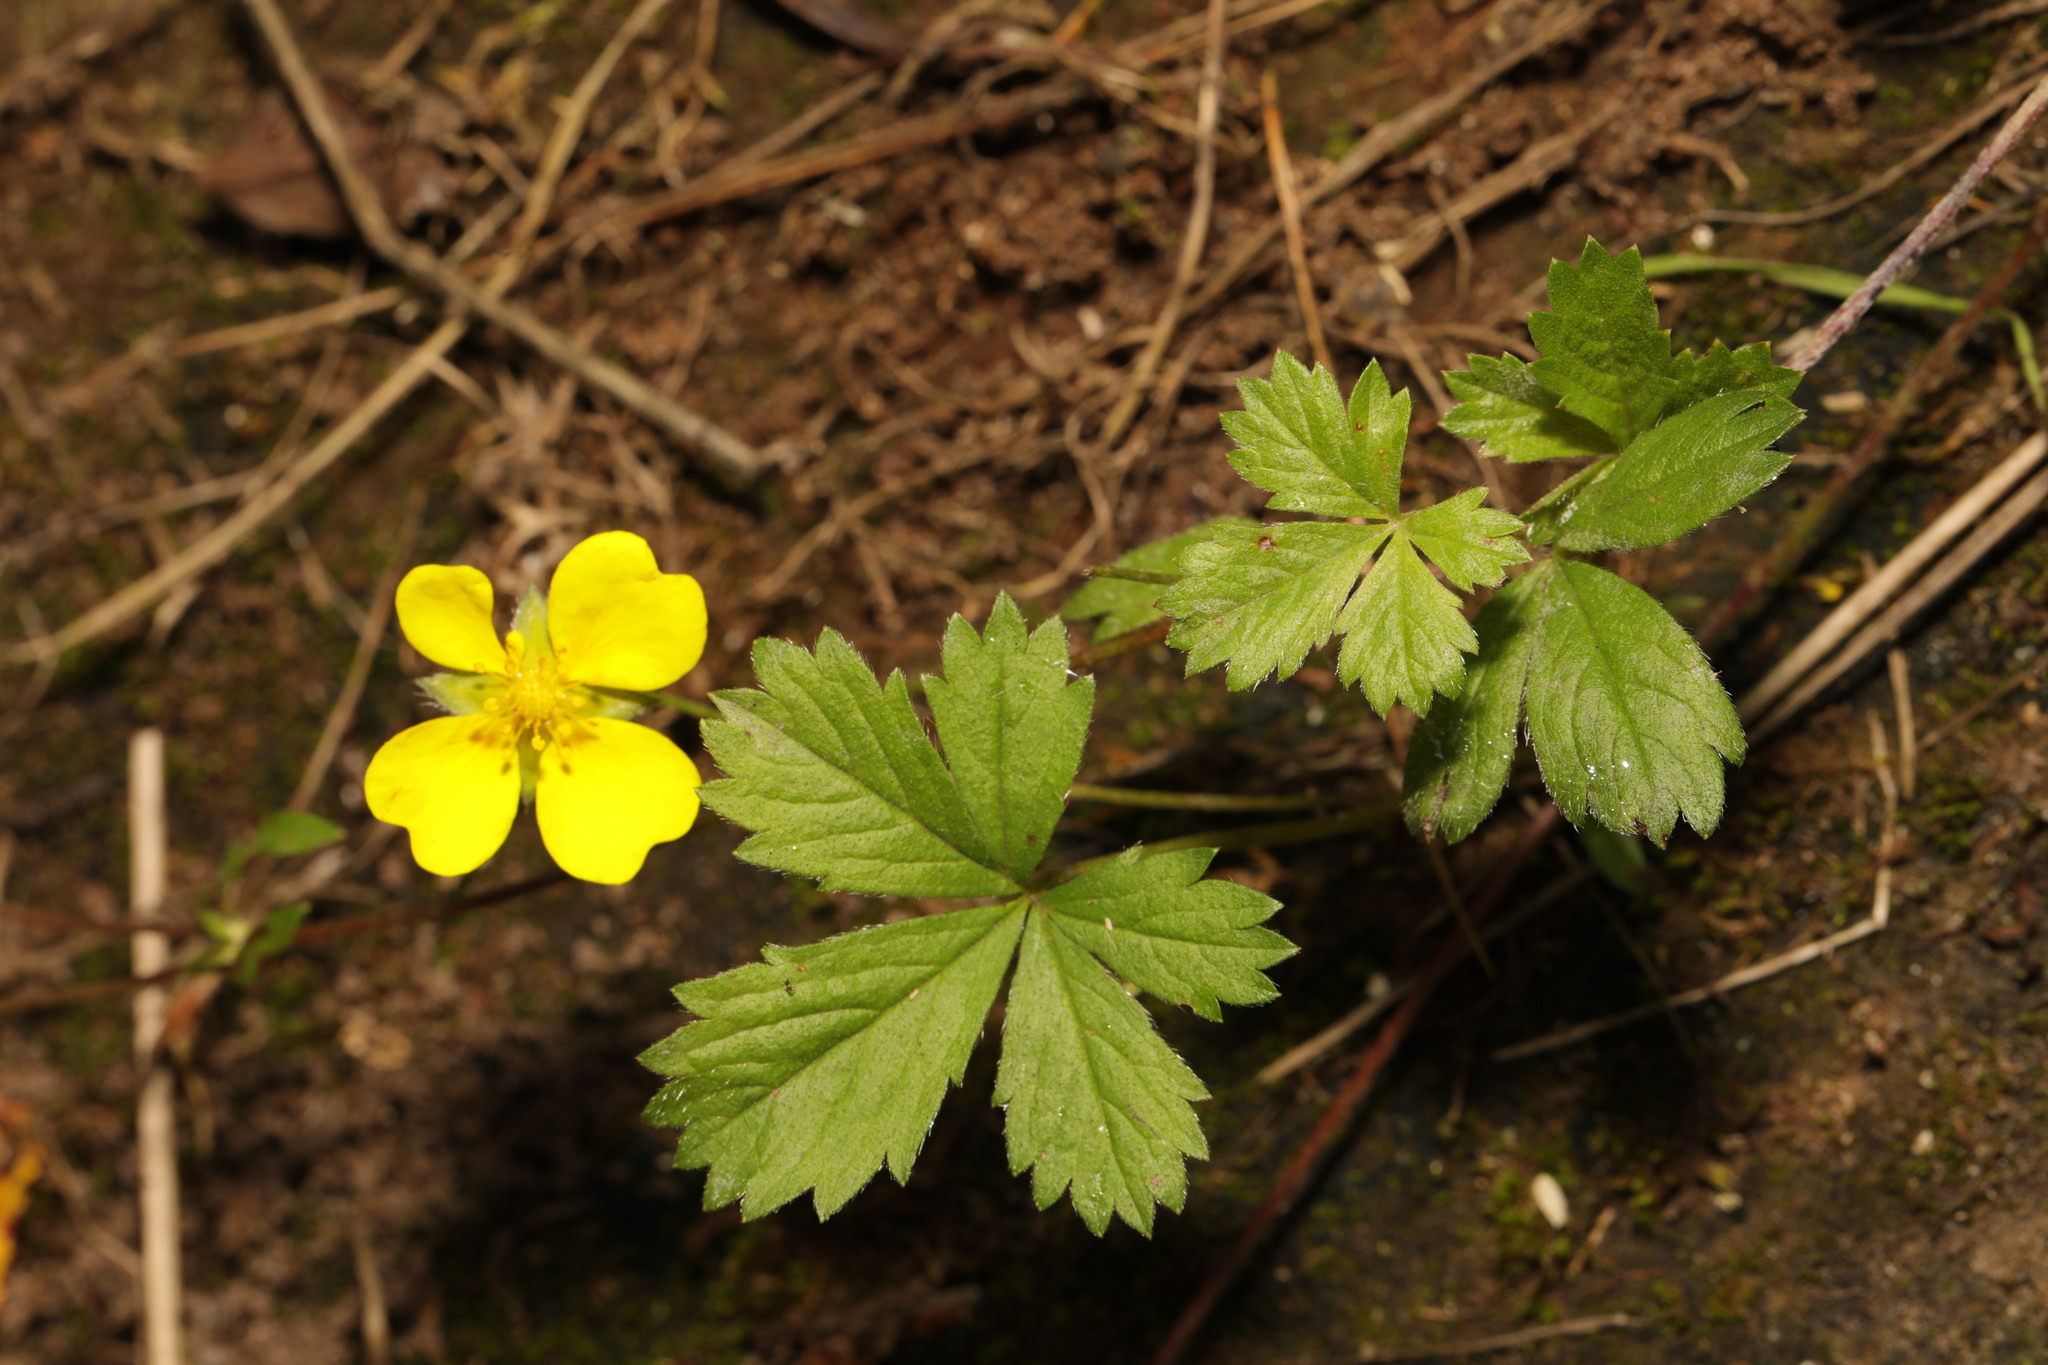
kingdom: Plantae
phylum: Tracheophyta
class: Magnoliopsida
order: Rosales
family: Rosaceae
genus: Potentilla
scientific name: Potentilla reptans
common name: Creeping cinquefoil
